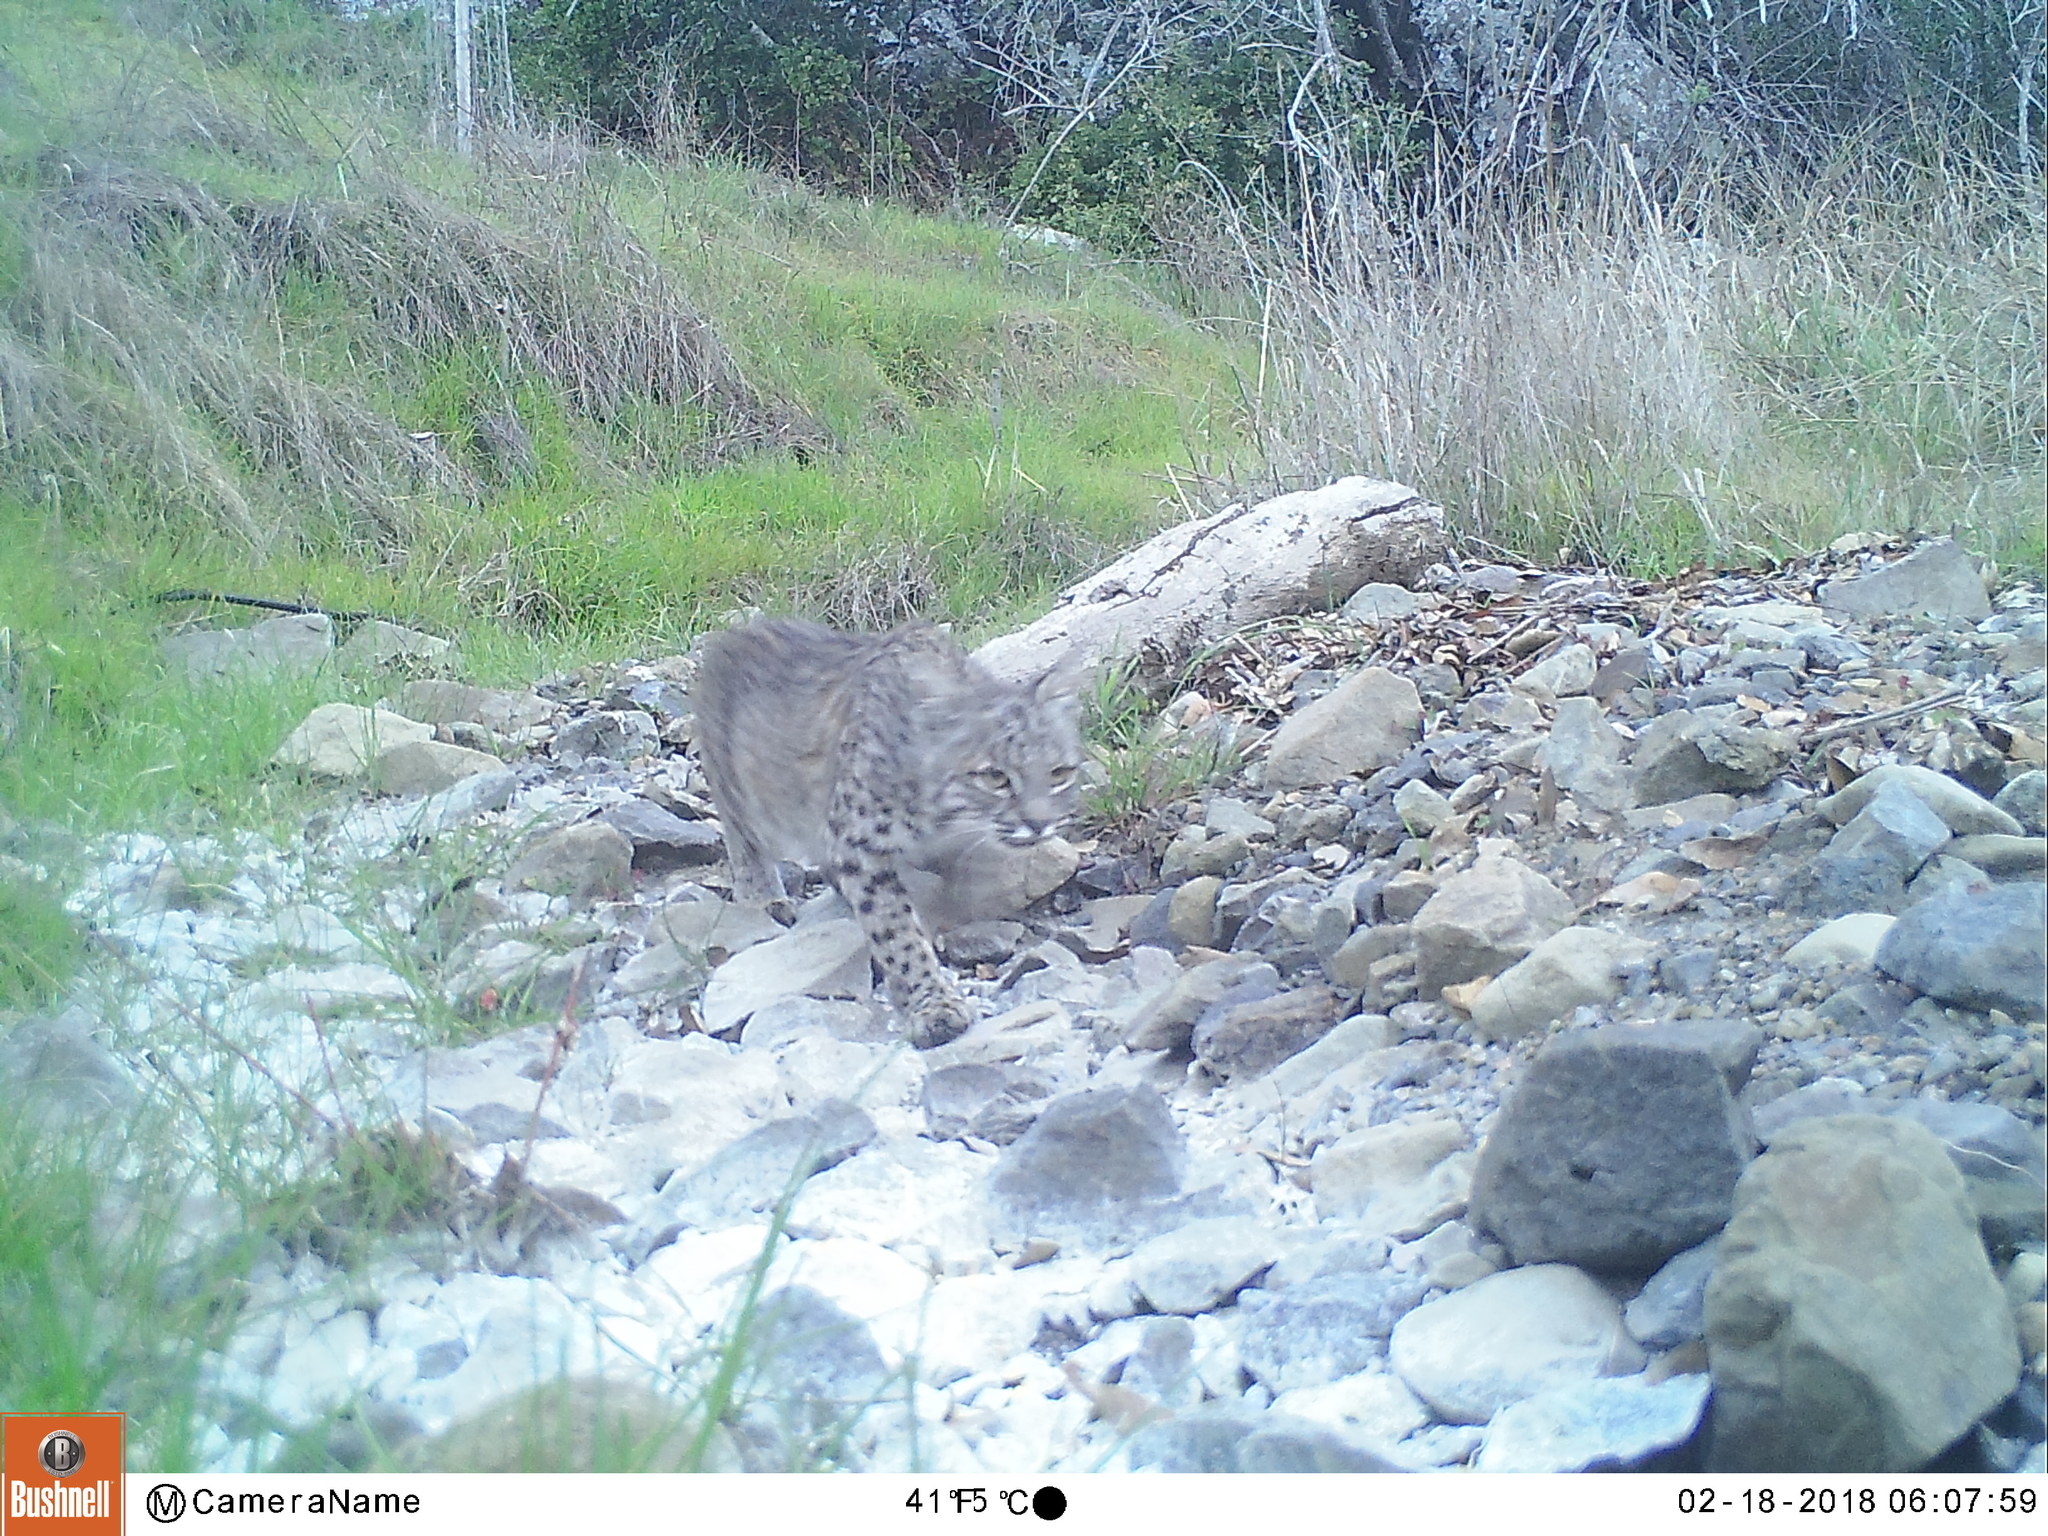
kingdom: Animalia
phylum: Chordata
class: Mammalia
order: Carnivora
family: Felidae
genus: Lynx
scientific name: Lynx rufus
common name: Bobcat
